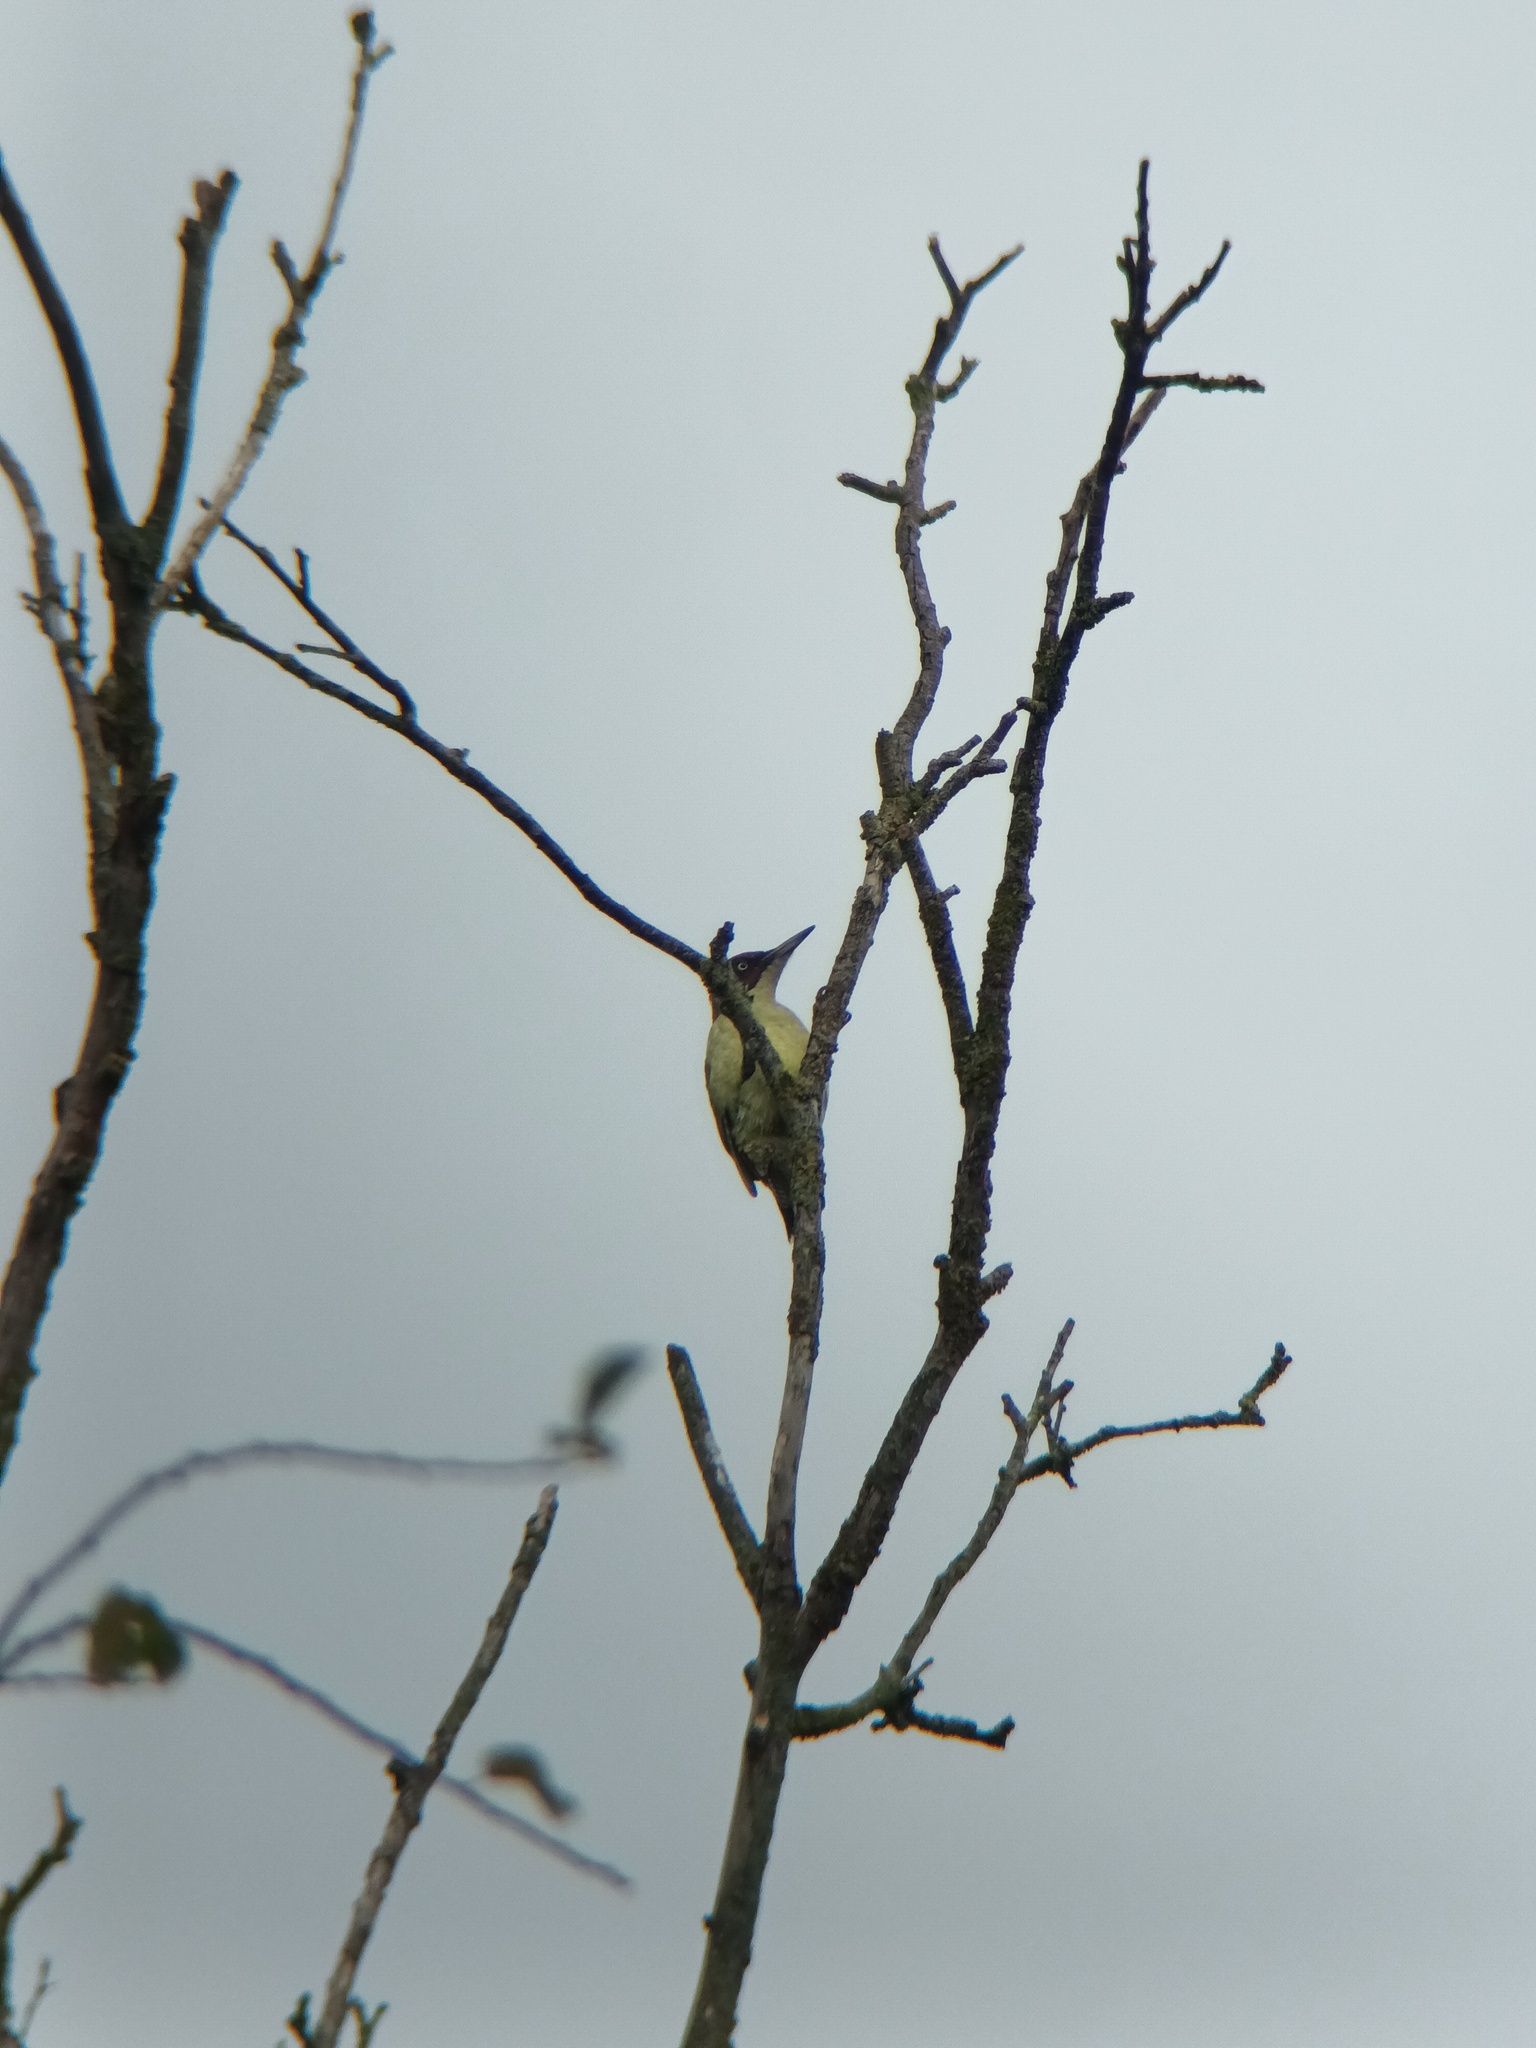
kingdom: Animalia
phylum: Chordata
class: Aves
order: Piciformes
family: Picidae
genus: Picus
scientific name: Picus viridis
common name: European green woodpecker
